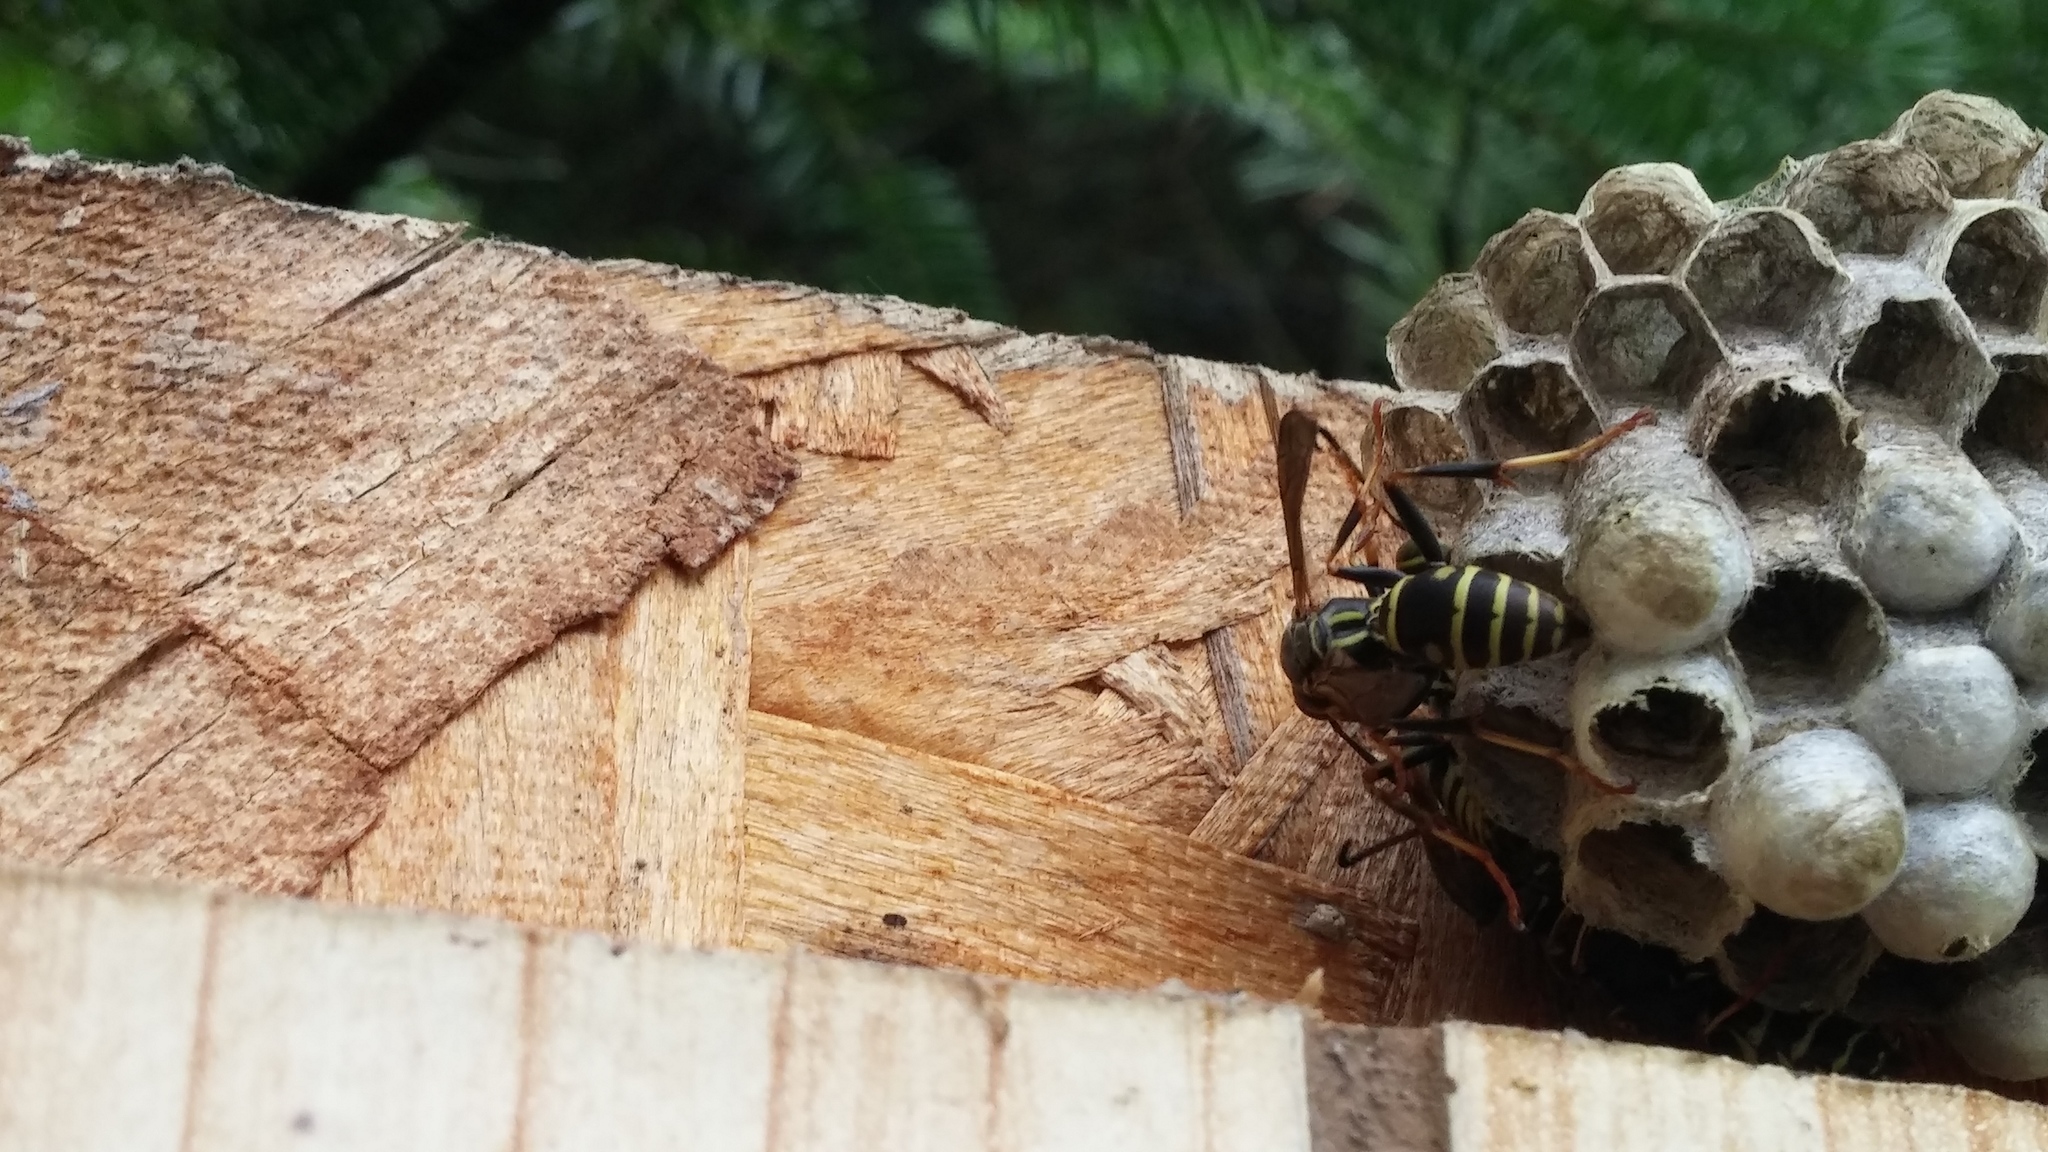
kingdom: Animalia
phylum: Arthropoda
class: Insecta
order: Hymenoptera
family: Eumenidae
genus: Polistes
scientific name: Polistes fuscatus
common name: Dark paper wasp
